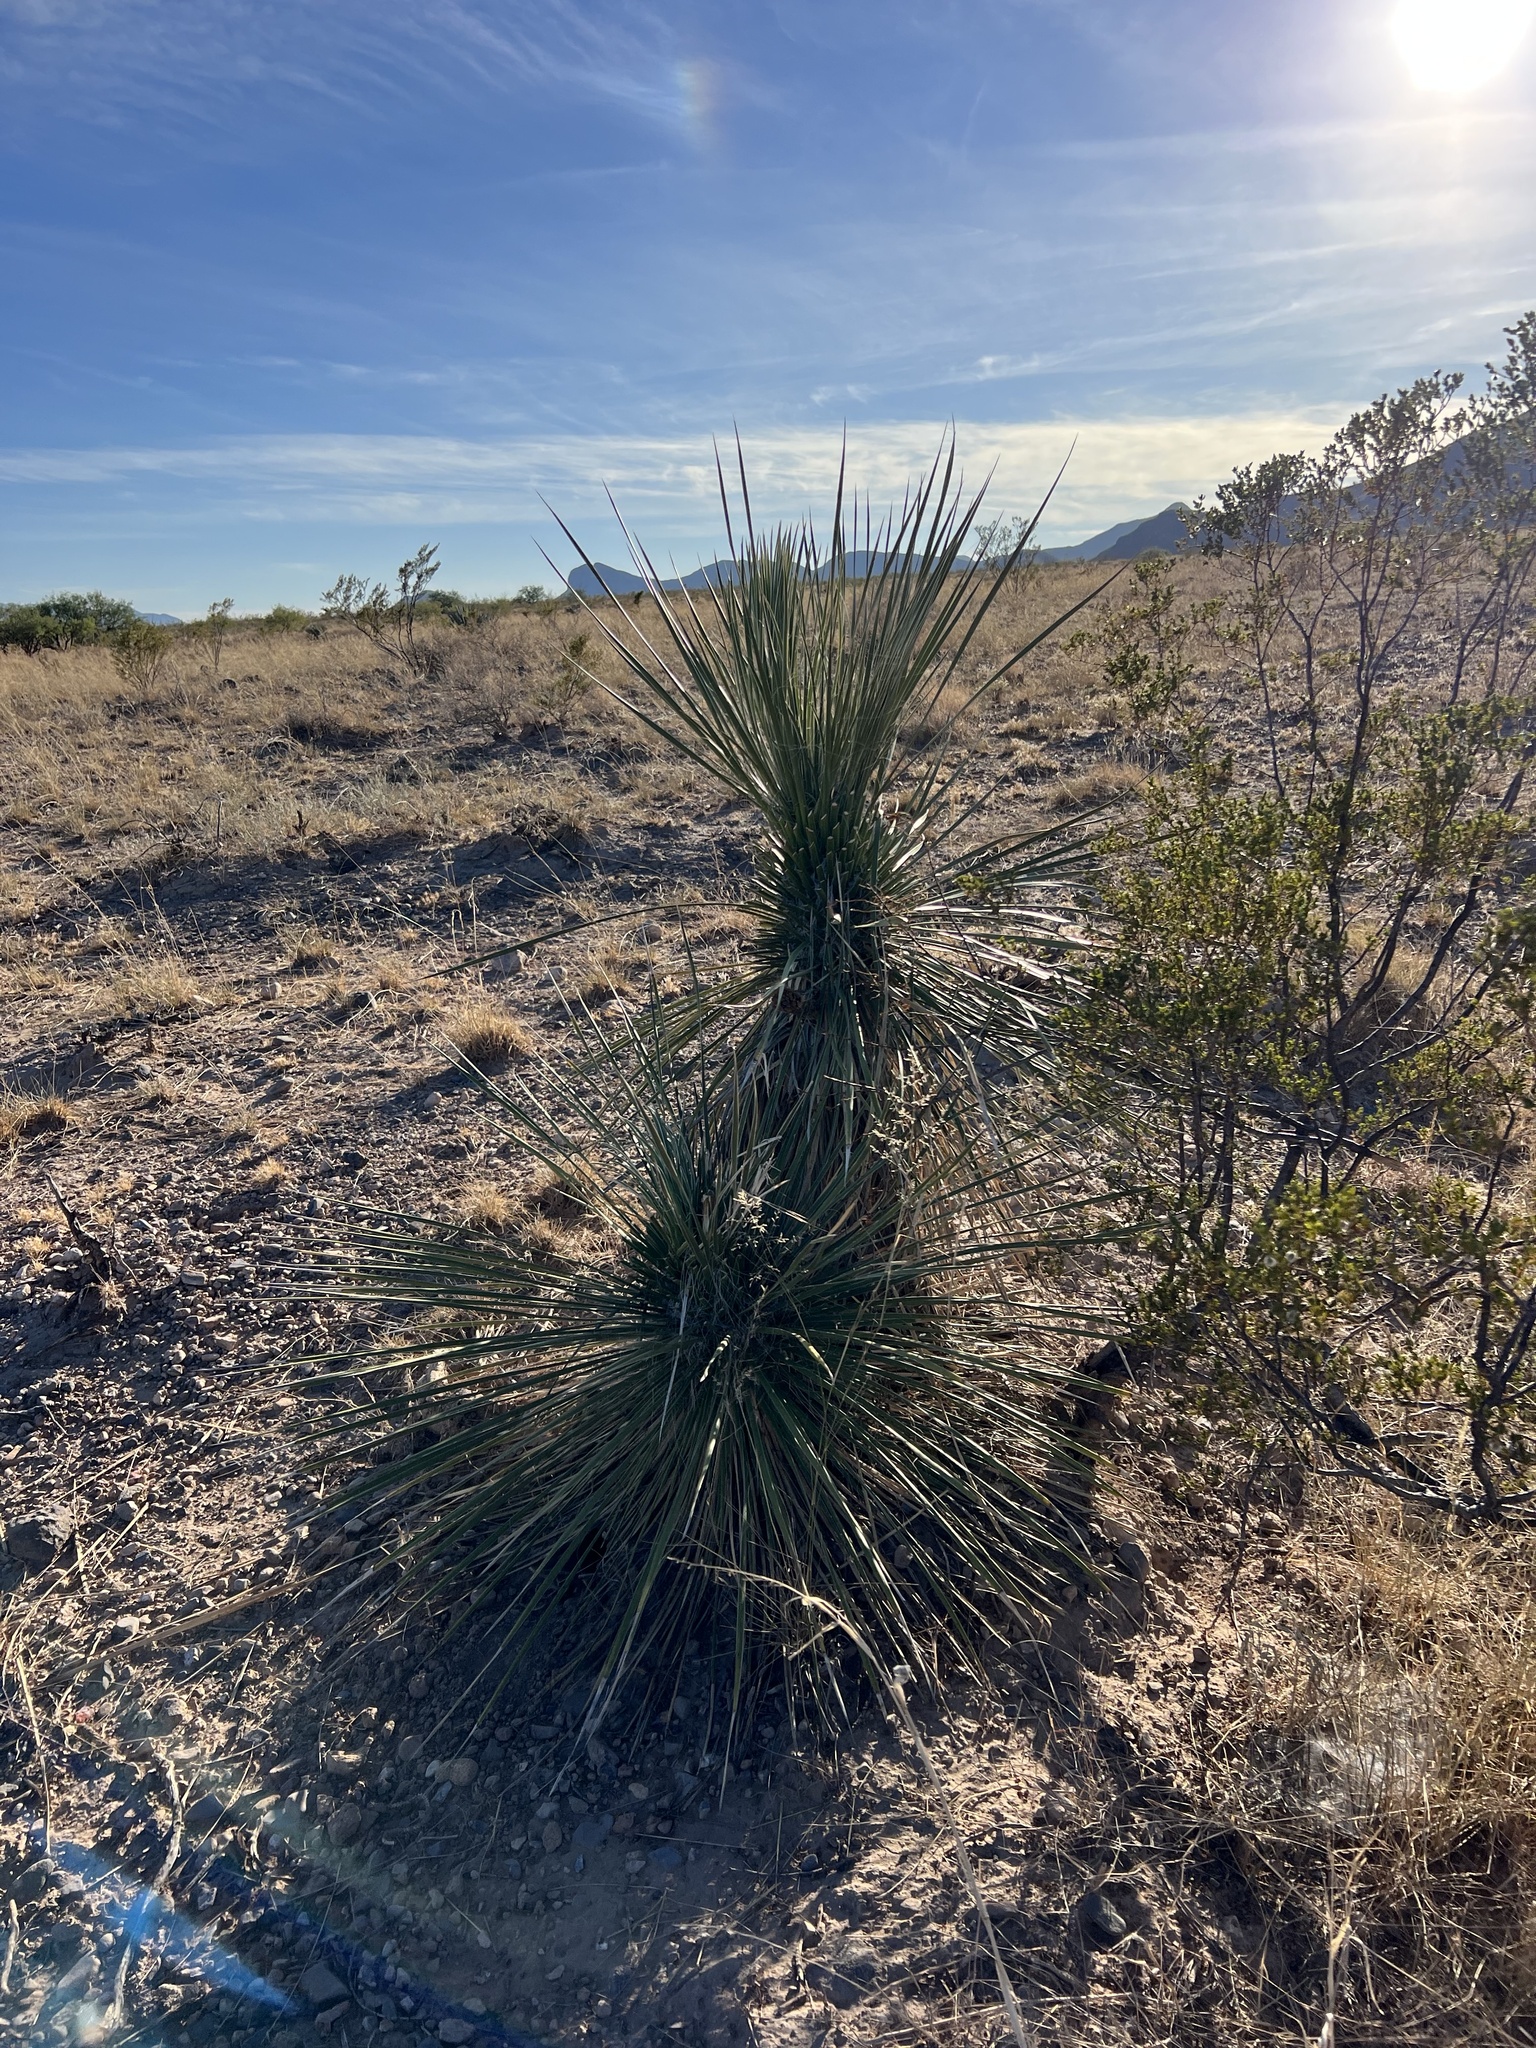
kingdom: Plantae
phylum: Tracheophyta
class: Liliopsida
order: Asparagales
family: Asparagaceae
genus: Yucca
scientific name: Yucca elata
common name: Palmella
